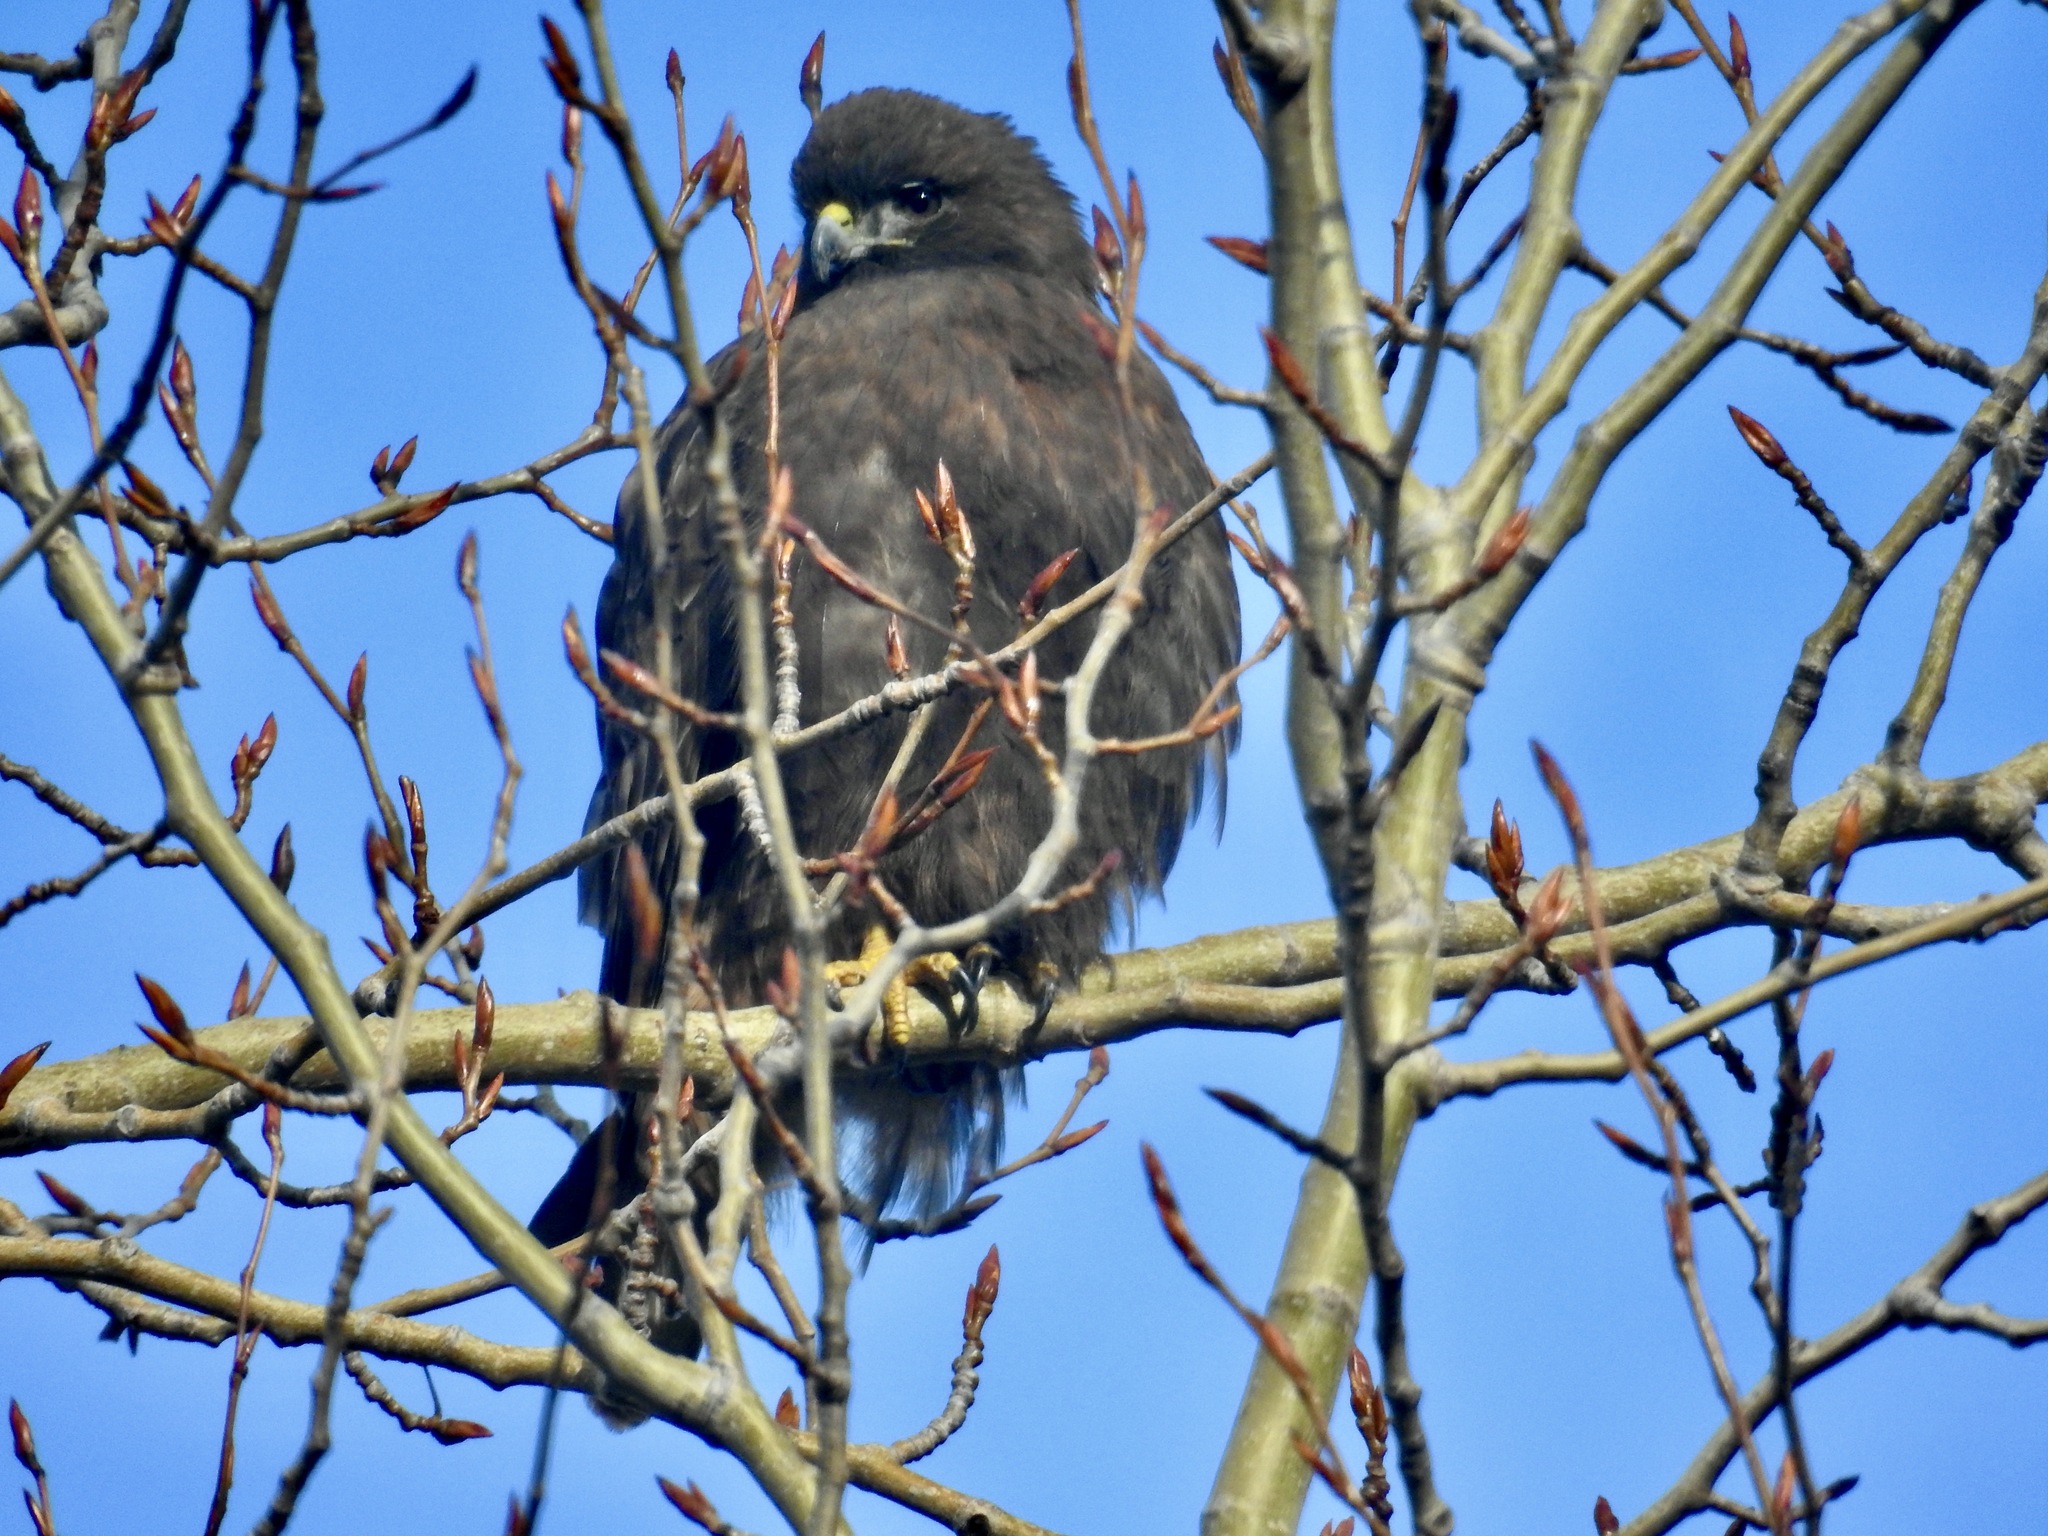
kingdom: Animalia
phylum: Chordata
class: Aves
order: Accipitriformes
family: Accipitridae
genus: Buteo
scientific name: Buteo jamaicensis
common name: Red-tailed hawk
